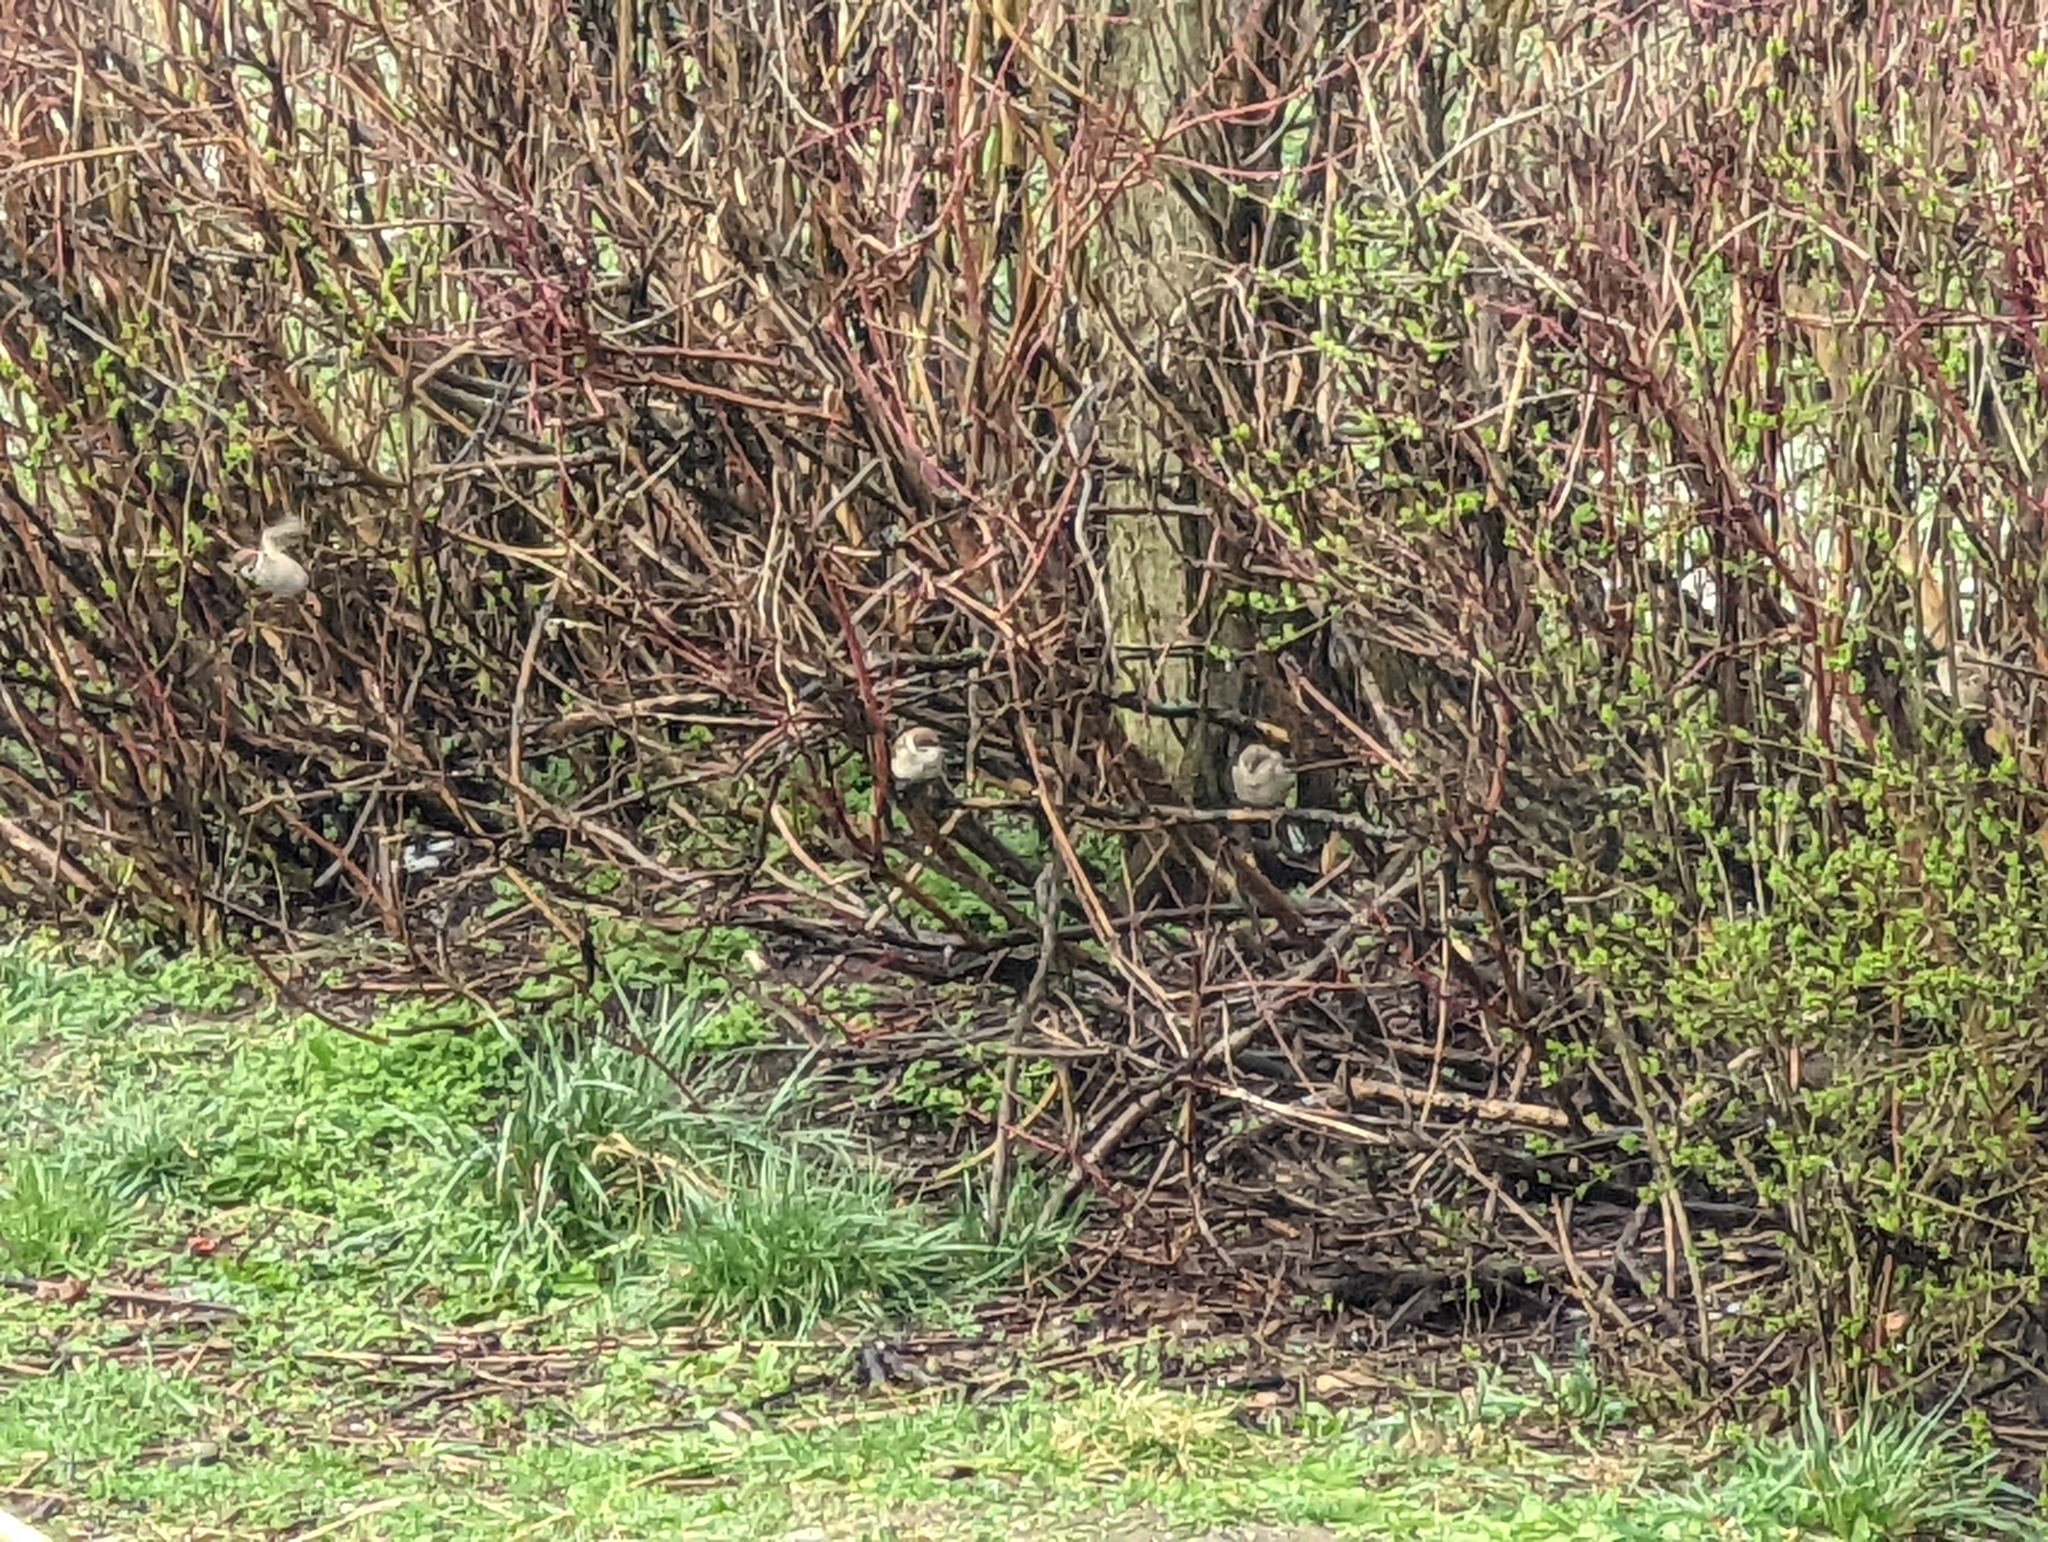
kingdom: Animalia
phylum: Chordata
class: Aves
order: Passeriformes
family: Passeridae
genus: Passer
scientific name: Passer montanus
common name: Eurasian tree sparrow
